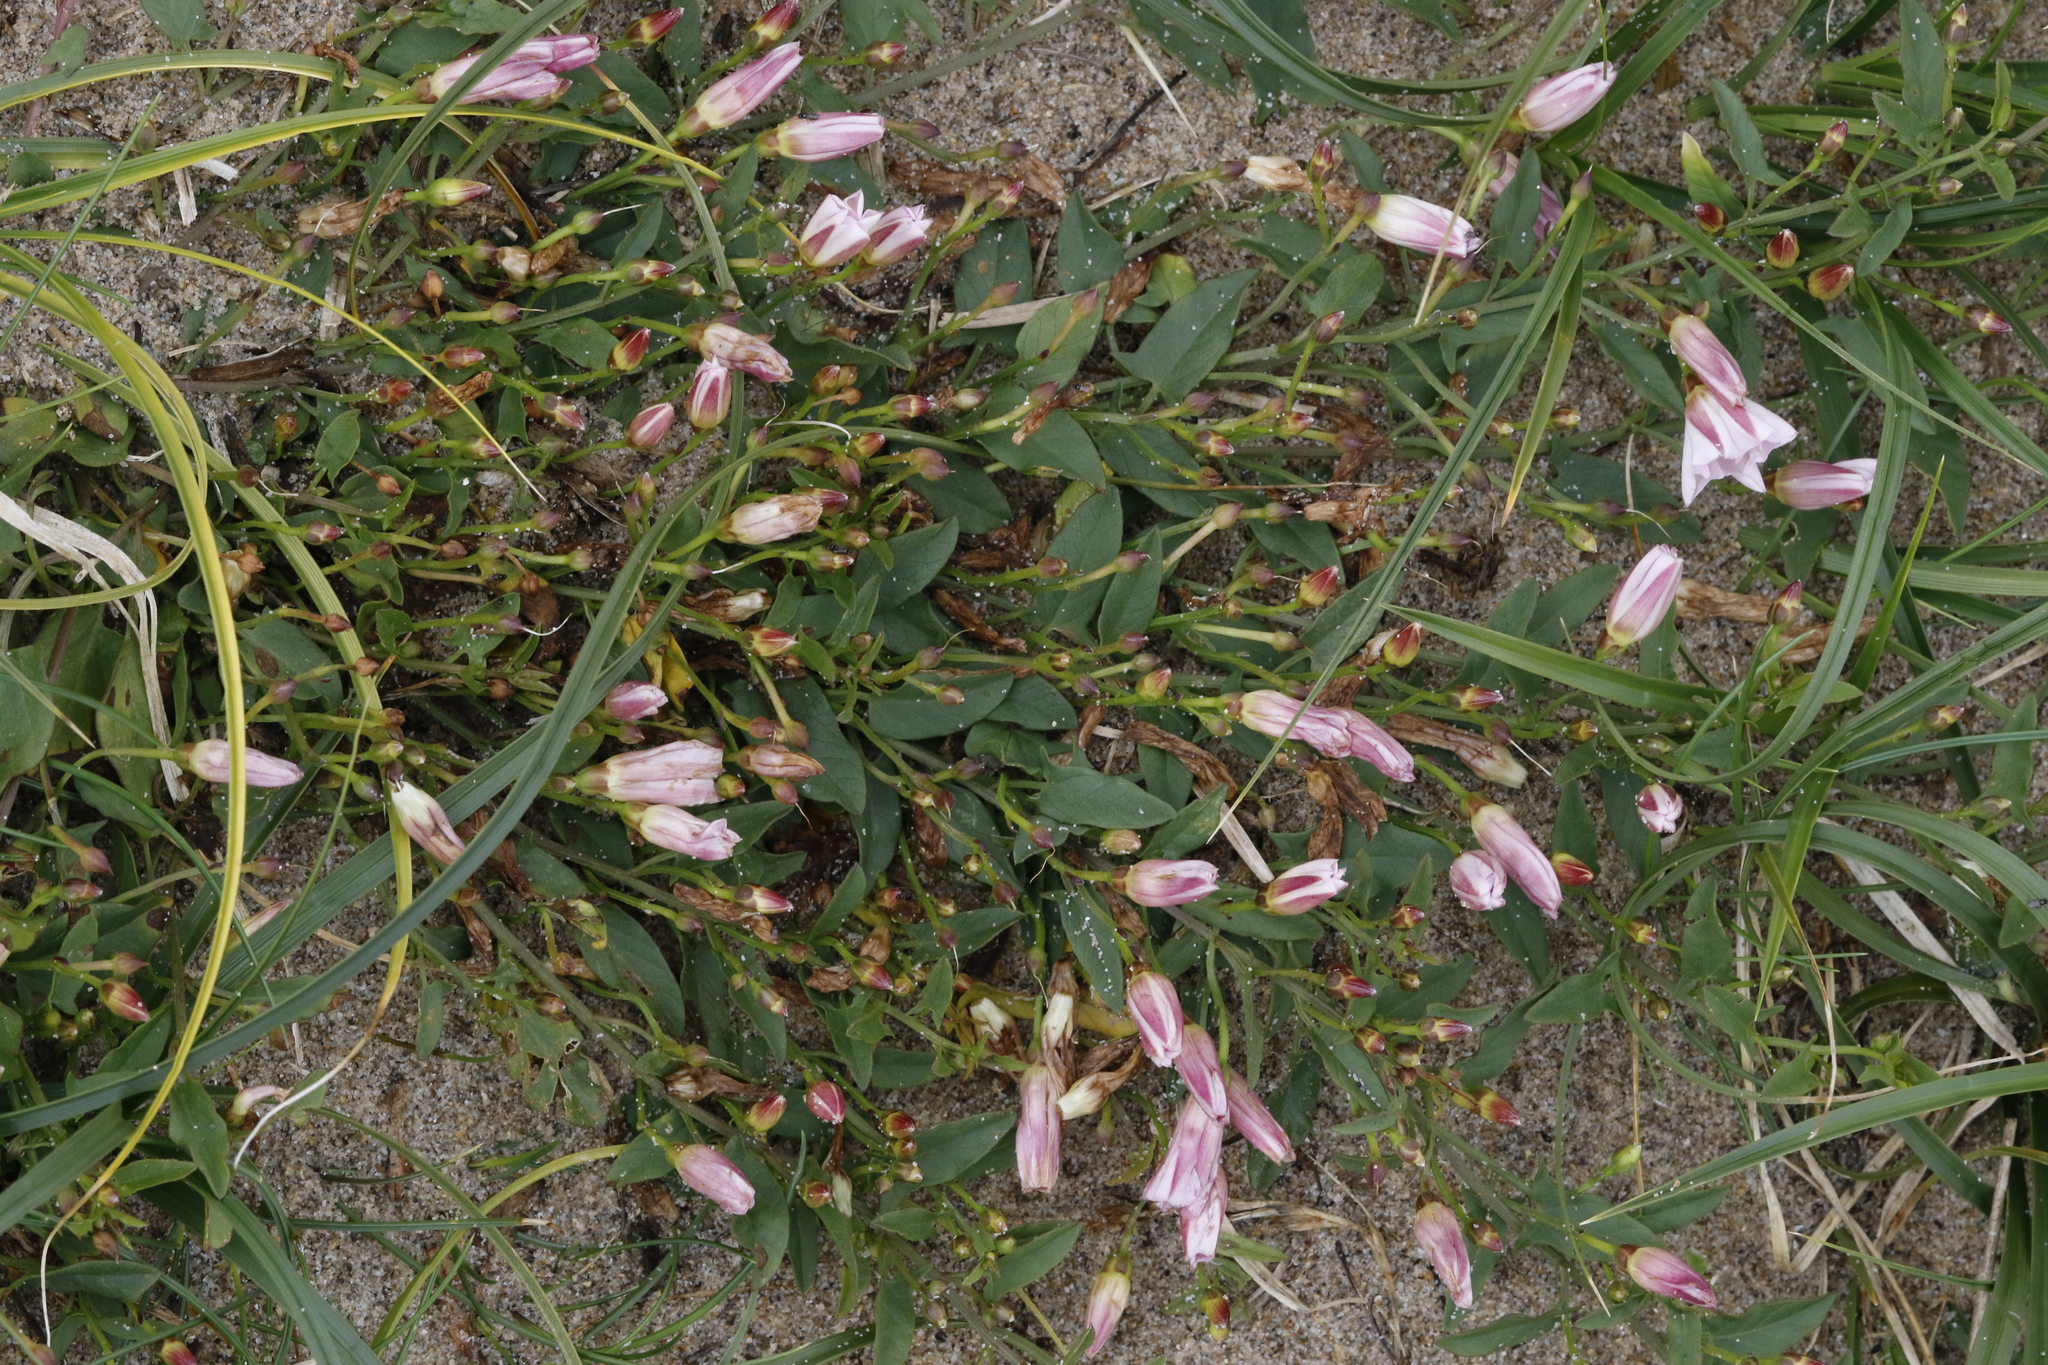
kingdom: Plantae
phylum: Tracheophyta
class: Magnoliopsida
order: Solanales
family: Convolvulaceae
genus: Convolvulus
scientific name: Convolvulus arvensis
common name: Field bindweed
